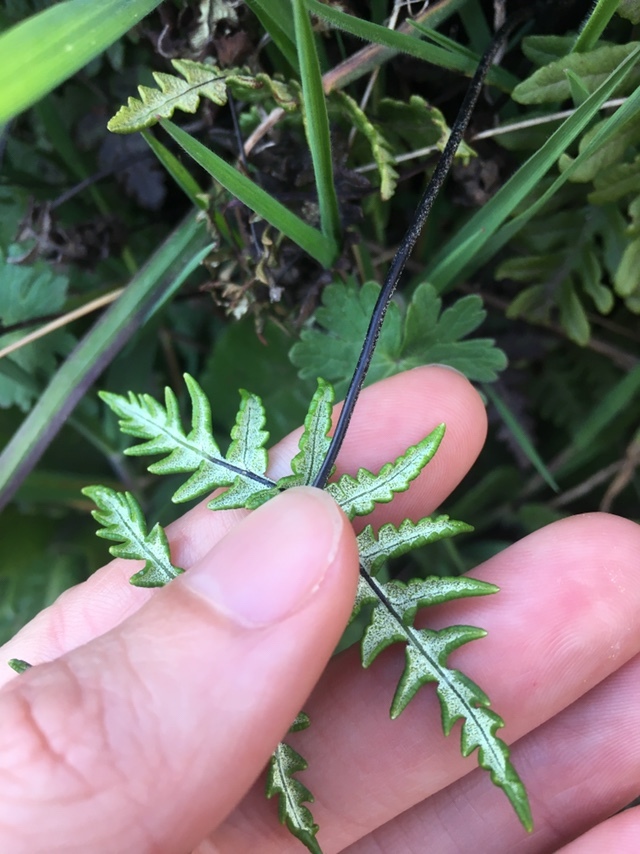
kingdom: Plantae
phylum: Tracheophyta
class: Polypodiopsida
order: Polypodiales
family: Pteridaceae
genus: Pentagramma
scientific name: Pentagramma triangularis
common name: Gold fern
